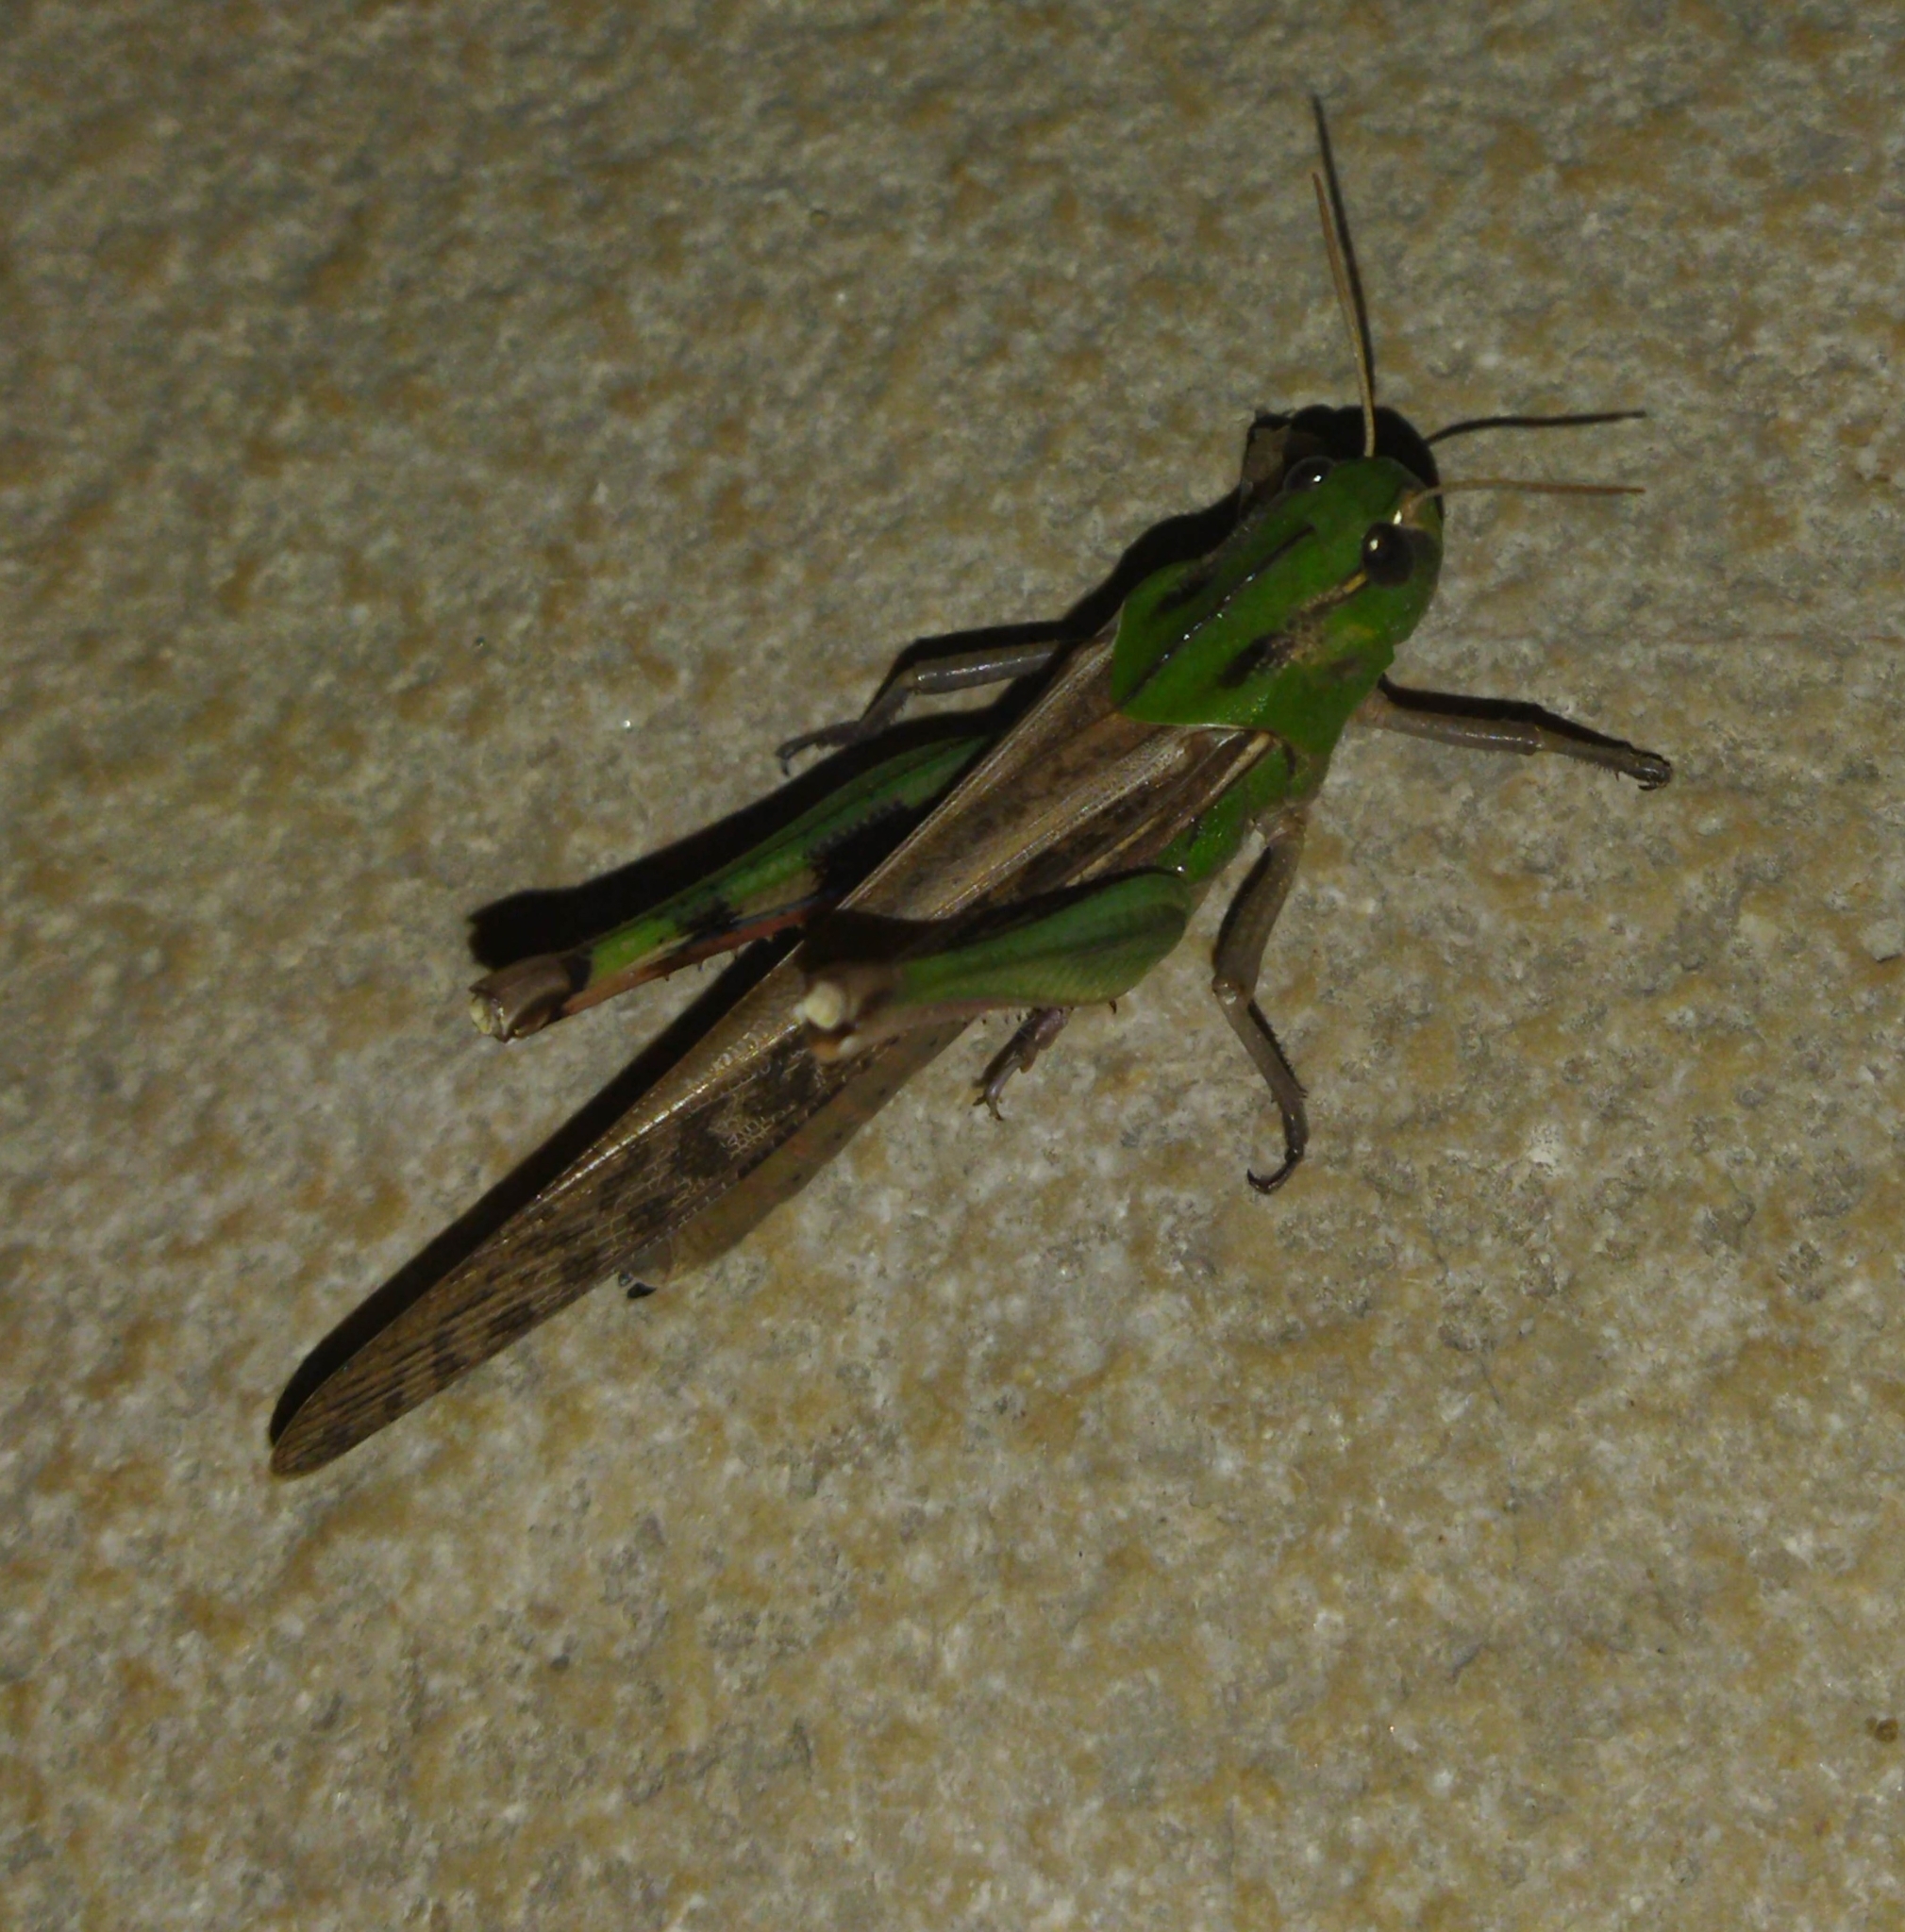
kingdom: Animalia
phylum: Arthropoda
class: Insecta
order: Orthoptera
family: Acrididae
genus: Locusta
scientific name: Locusta migratoria
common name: Migratory locust
